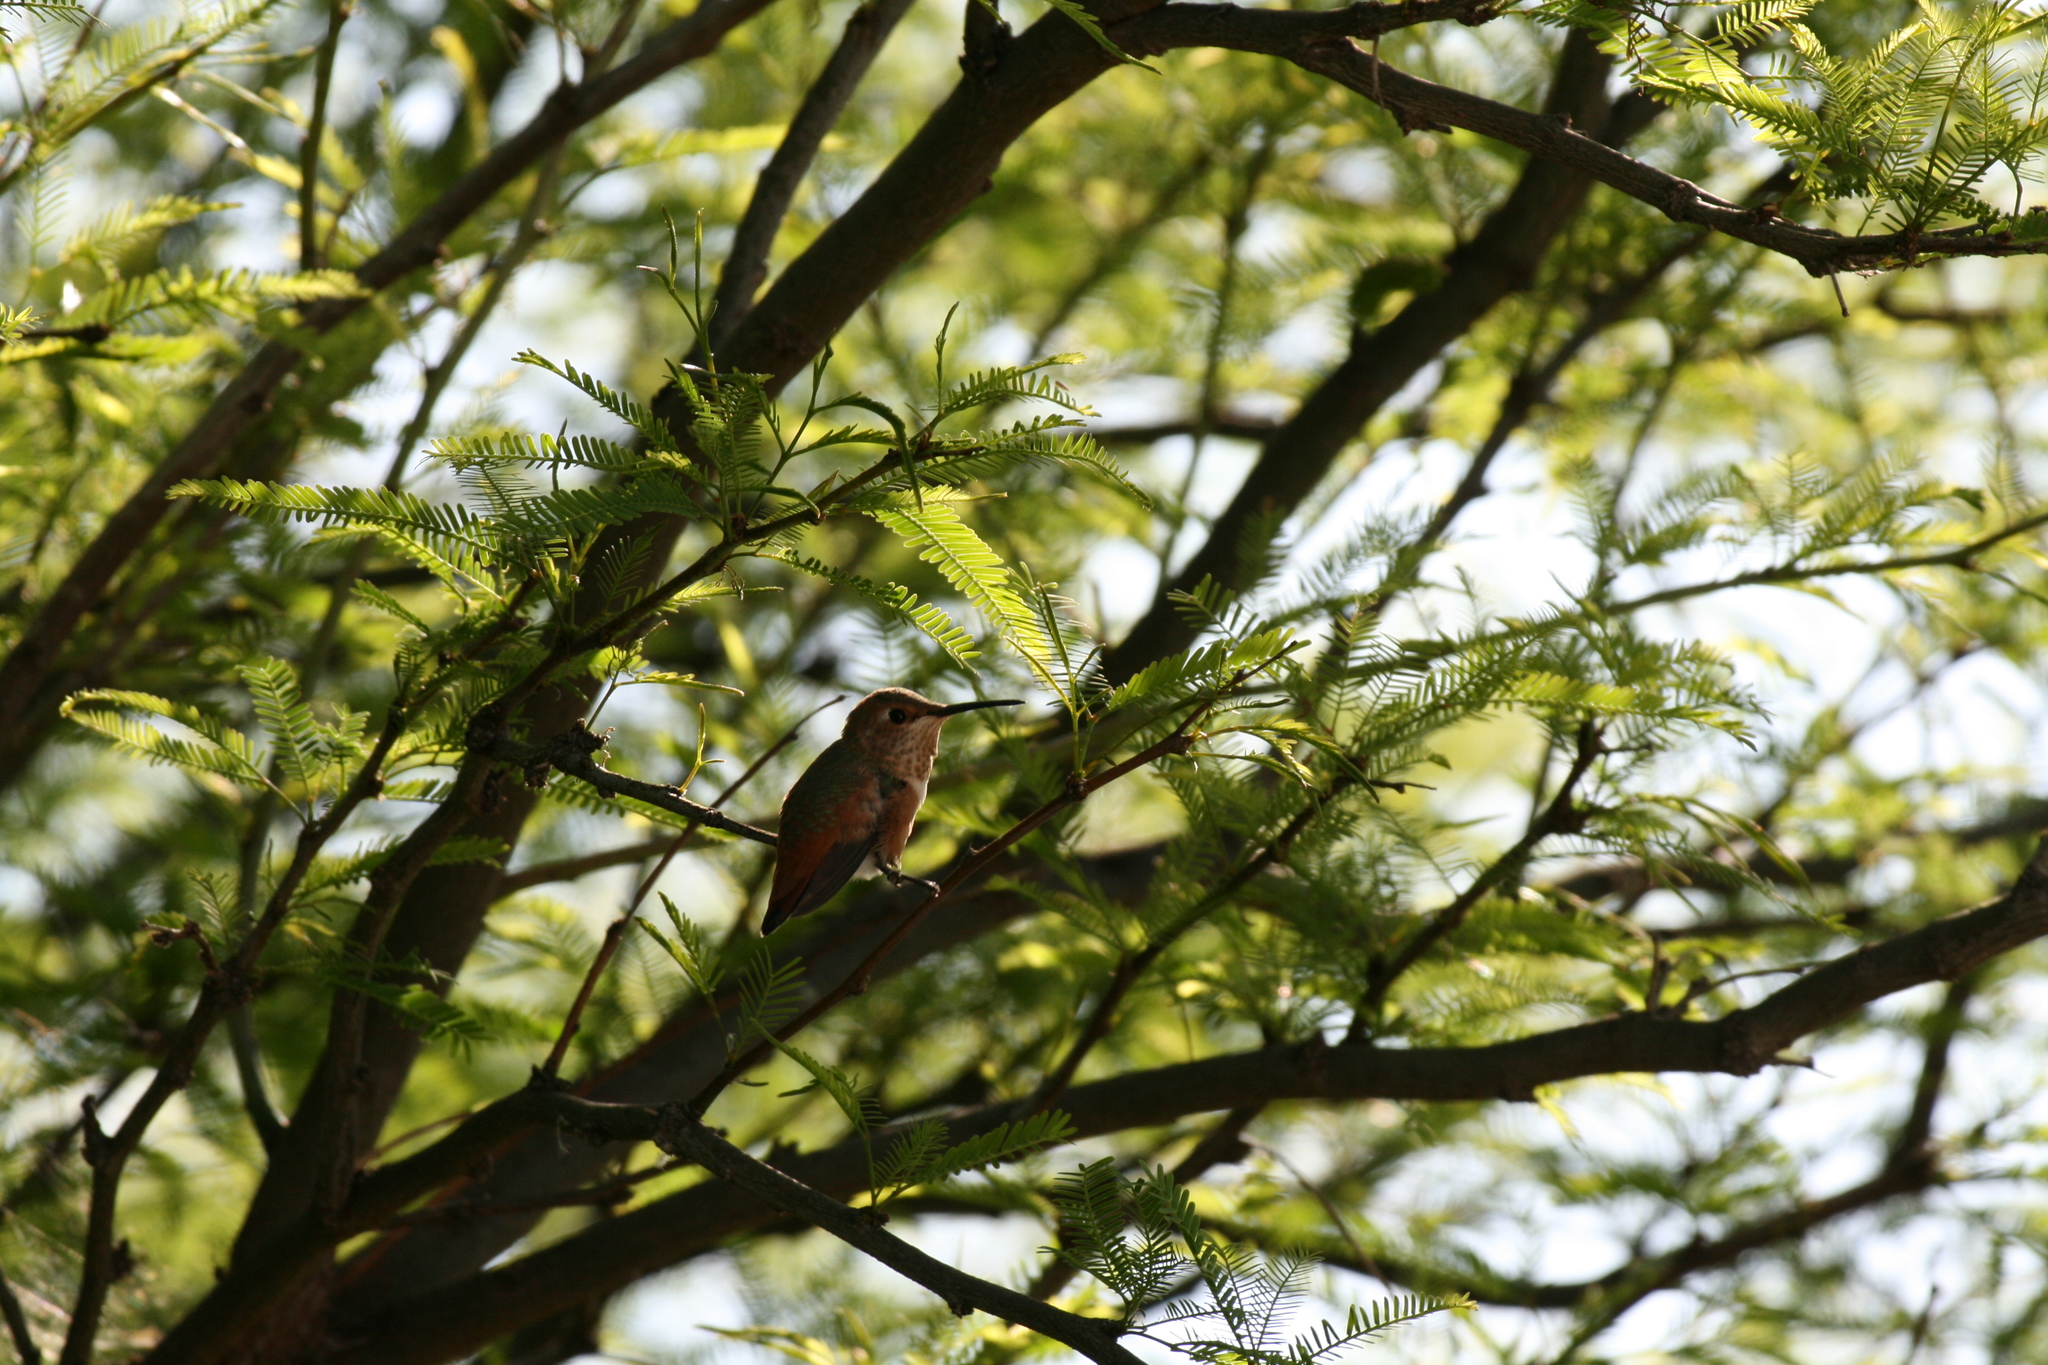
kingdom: Animalia
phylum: Chordata
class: Aves
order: Apodiformes
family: Trochilidae
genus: Selasphorus
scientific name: Selasphorus sasin
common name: Allen's hummingbird
